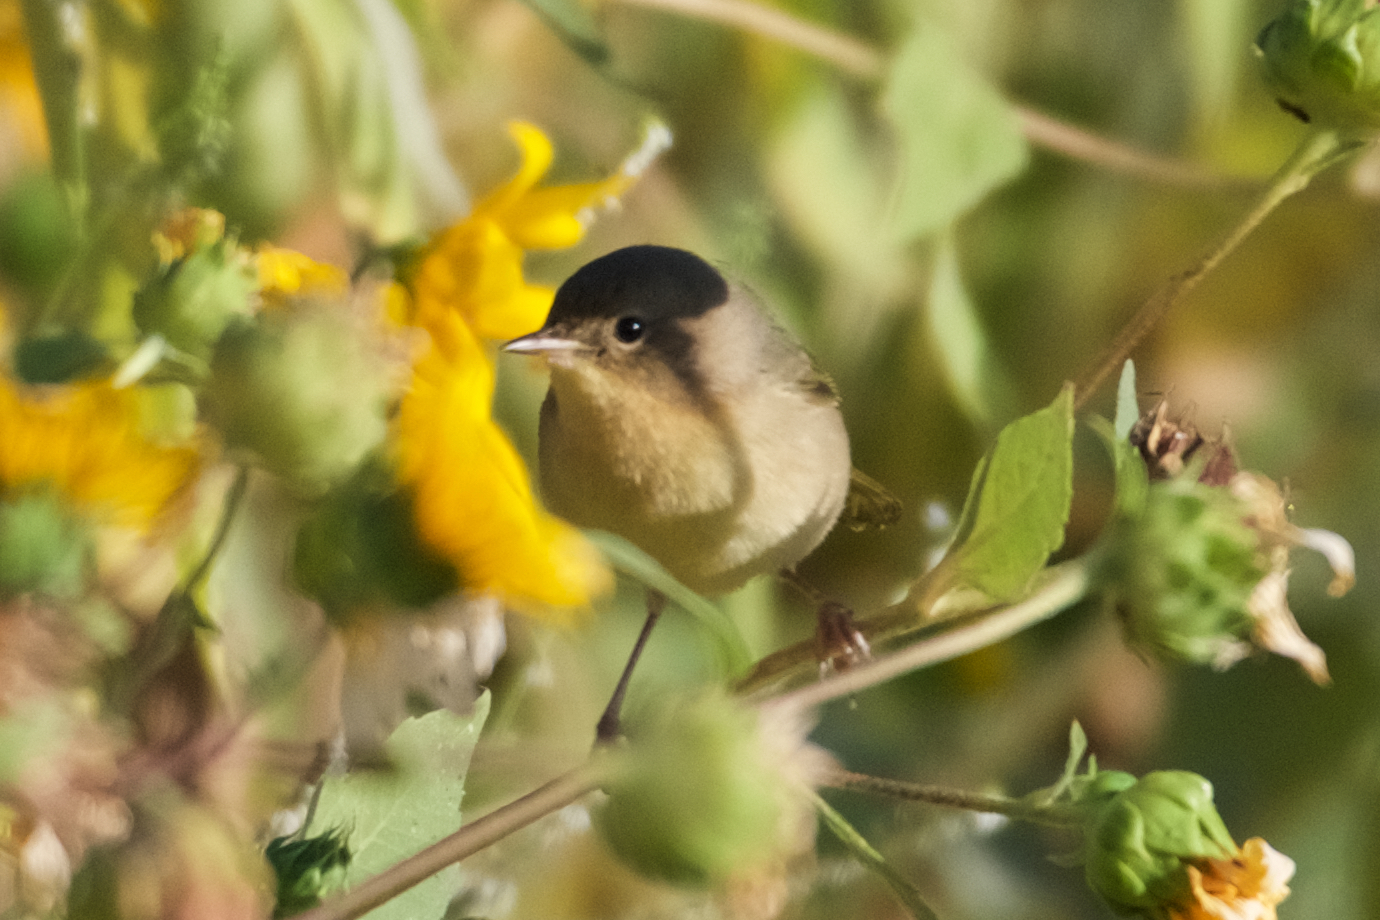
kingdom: Animalia
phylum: Chordata
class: Aves
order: Passeriformes
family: Parulidae
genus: Geothlypis
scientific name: Geothlypis trichas
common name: Common yellowthroat
